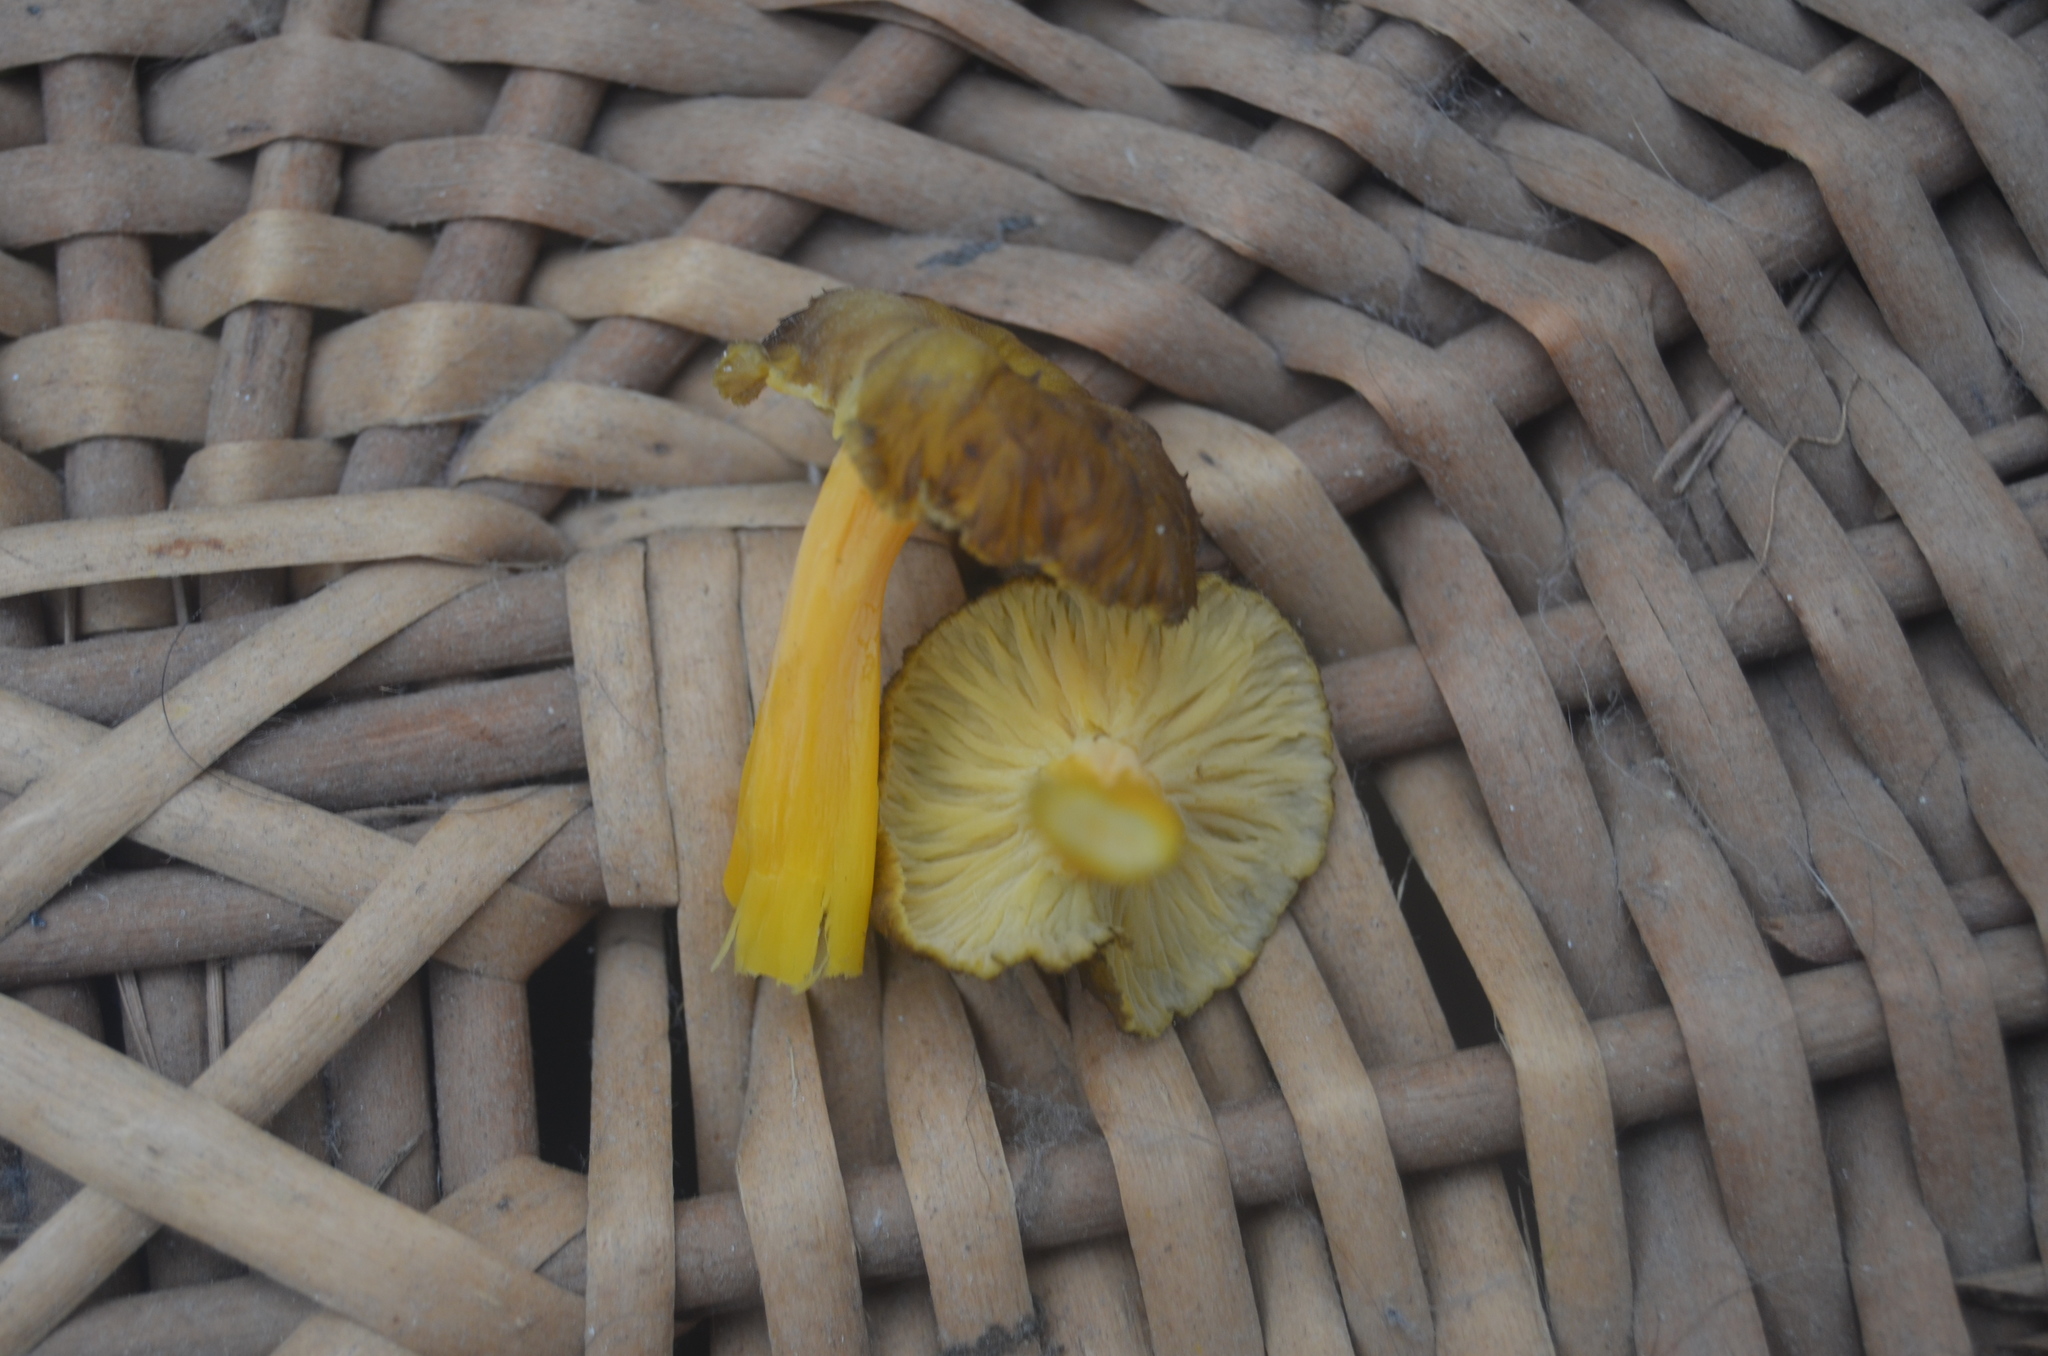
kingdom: Fungi
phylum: Basidiomycota
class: Agaricomycetes
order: Cantharellales
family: Hydnaceae
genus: Craterellus
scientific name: Craterellus lutescens
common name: Golden chanterelle
